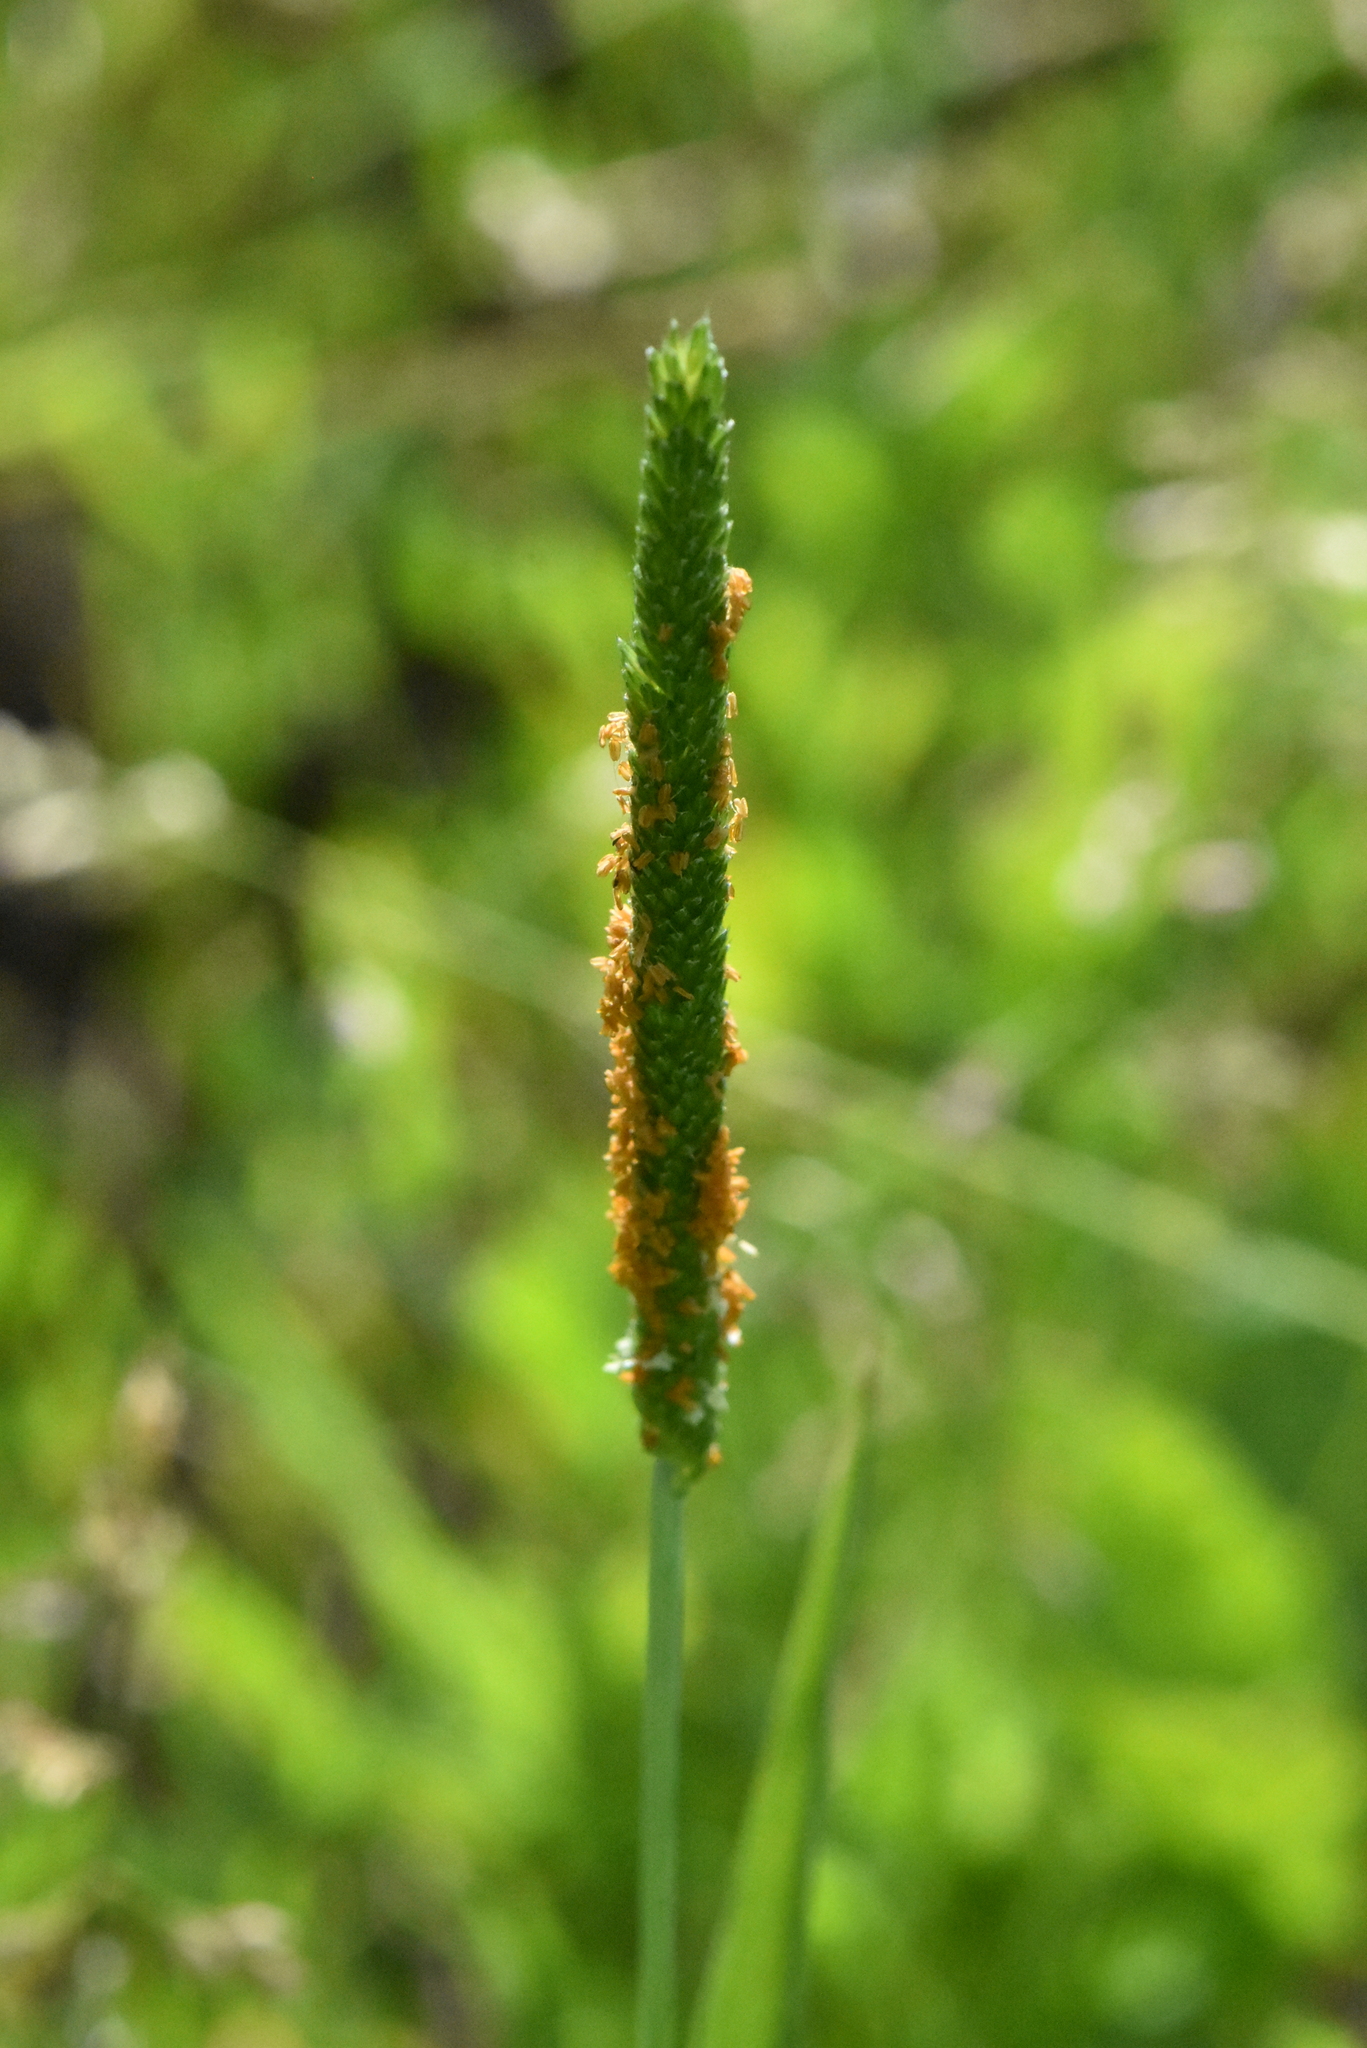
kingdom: Plantae
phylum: Tracheophyta
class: Liliopsida
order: Poales
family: Poaceae
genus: Alopecurus
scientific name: Alopecurus aequalis
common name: Orange foxtail
